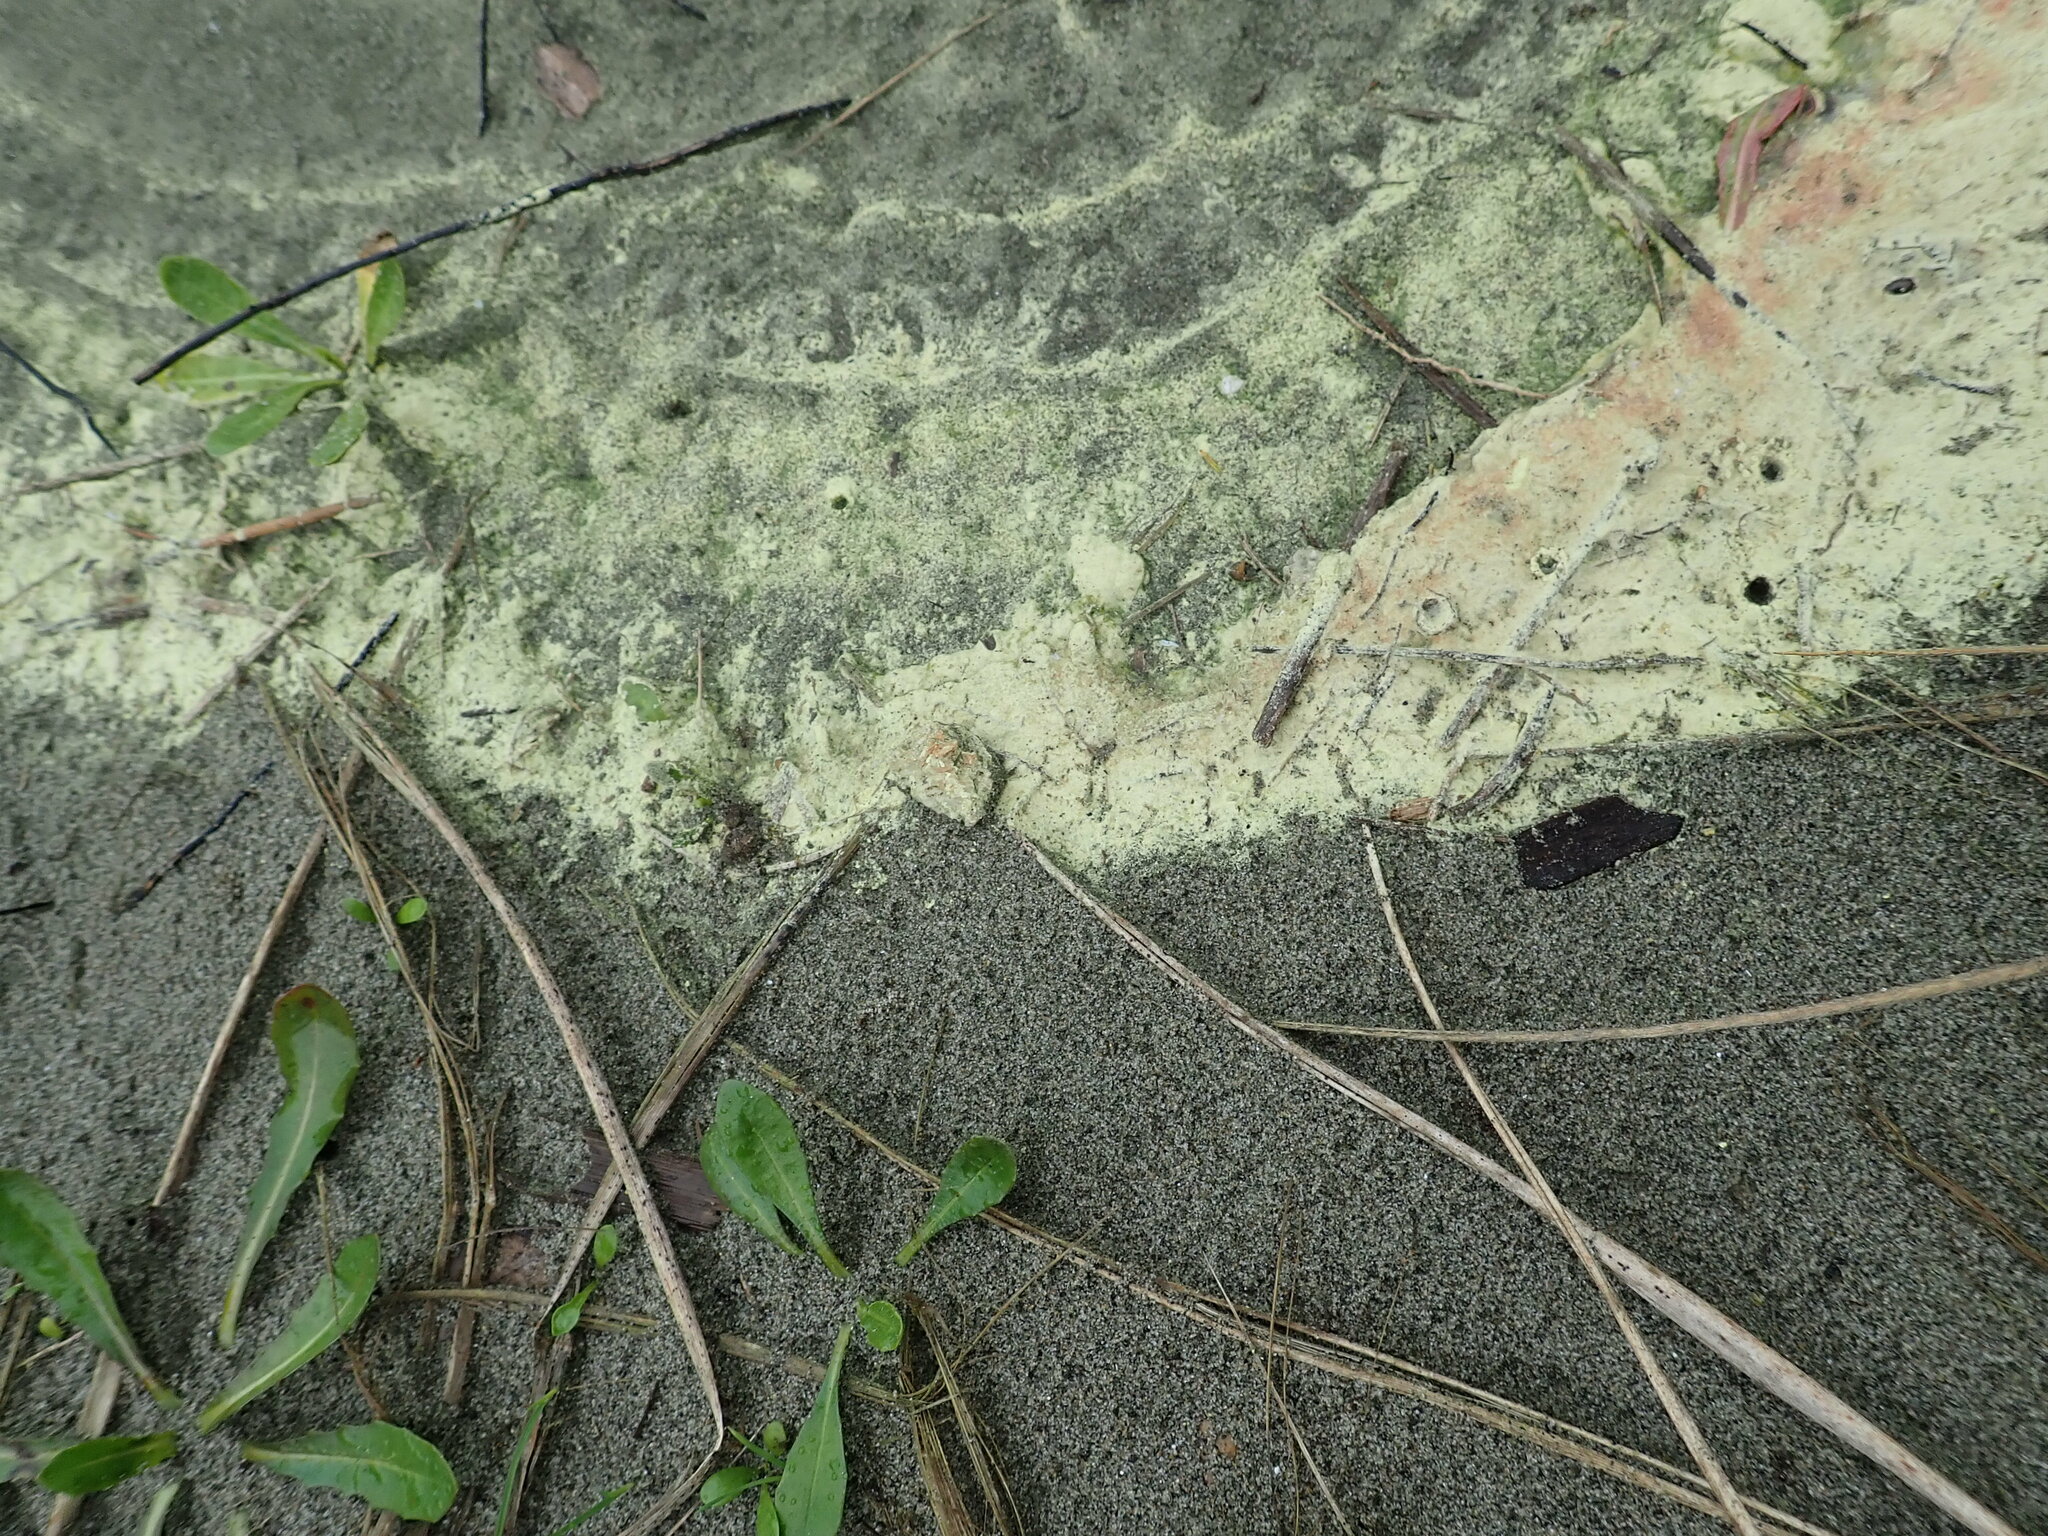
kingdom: Plantae
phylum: Tracheophyta
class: Pinopsida
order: Pinales
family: Pinaceae
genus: Pinus
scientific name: Pinus radiata
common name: Monterey pine
